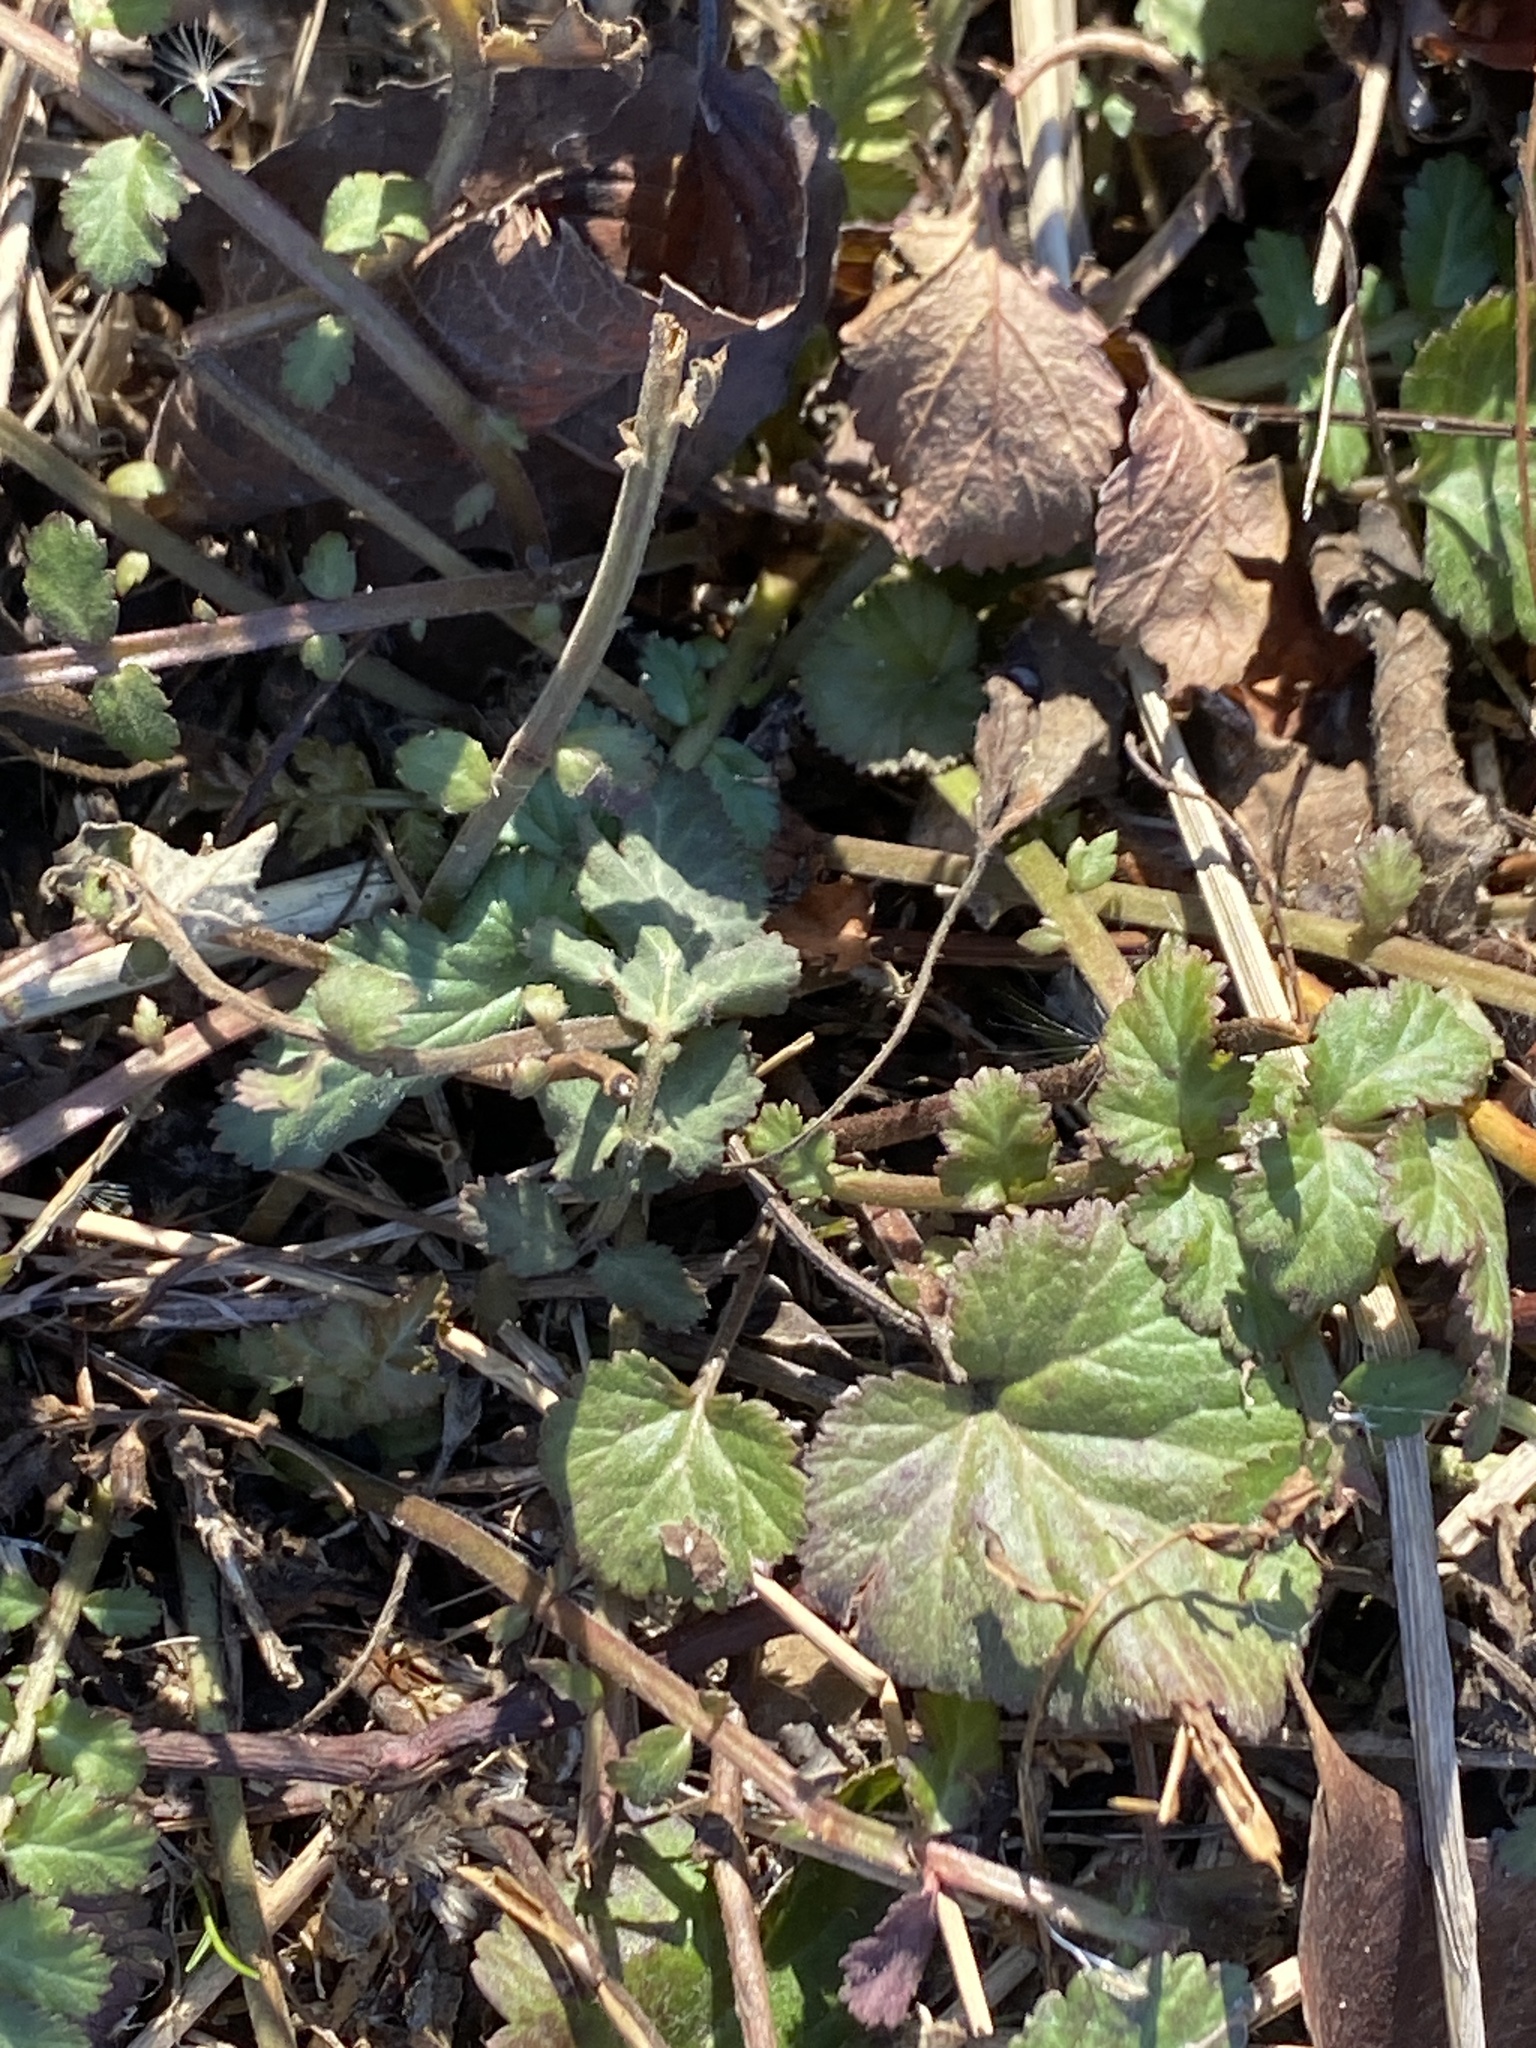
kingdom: Plantae
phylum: Tracheophyta
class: Magnoliopsida
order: Rosales
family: Rosaceae
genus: Geum
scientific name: Geum canadense
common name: White avens
